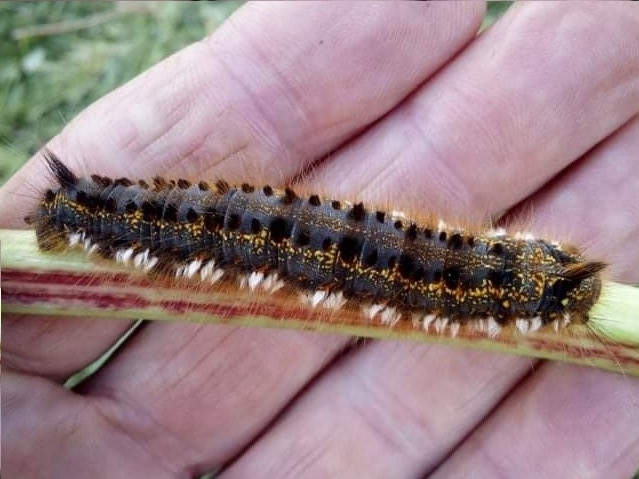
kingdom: Animalia
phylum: Arthropoda
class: Insecta
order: Lepidoptera
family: Lasiocampidae
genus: Euthrix
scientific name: Euthrix potatoria
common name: Drinker
